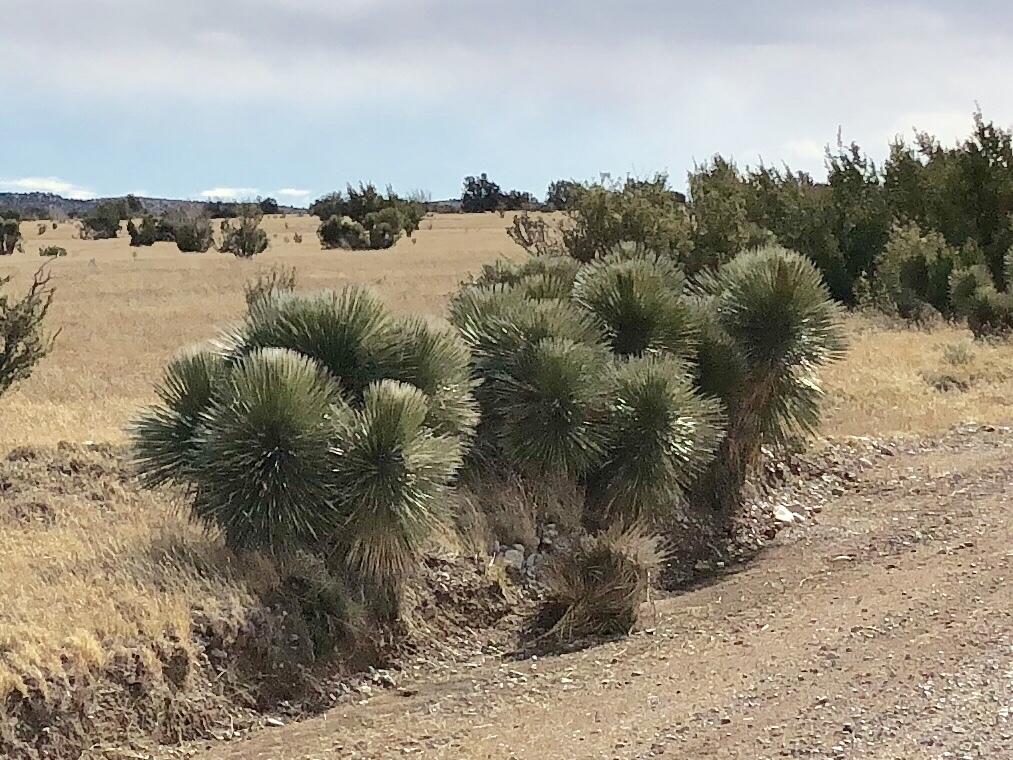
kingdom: Plantae
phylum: Tracheophyta
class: Liliopsida
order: Asparagales
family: Asparagaceae
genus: Yucca
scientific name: Yucca elata
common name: Palmella
